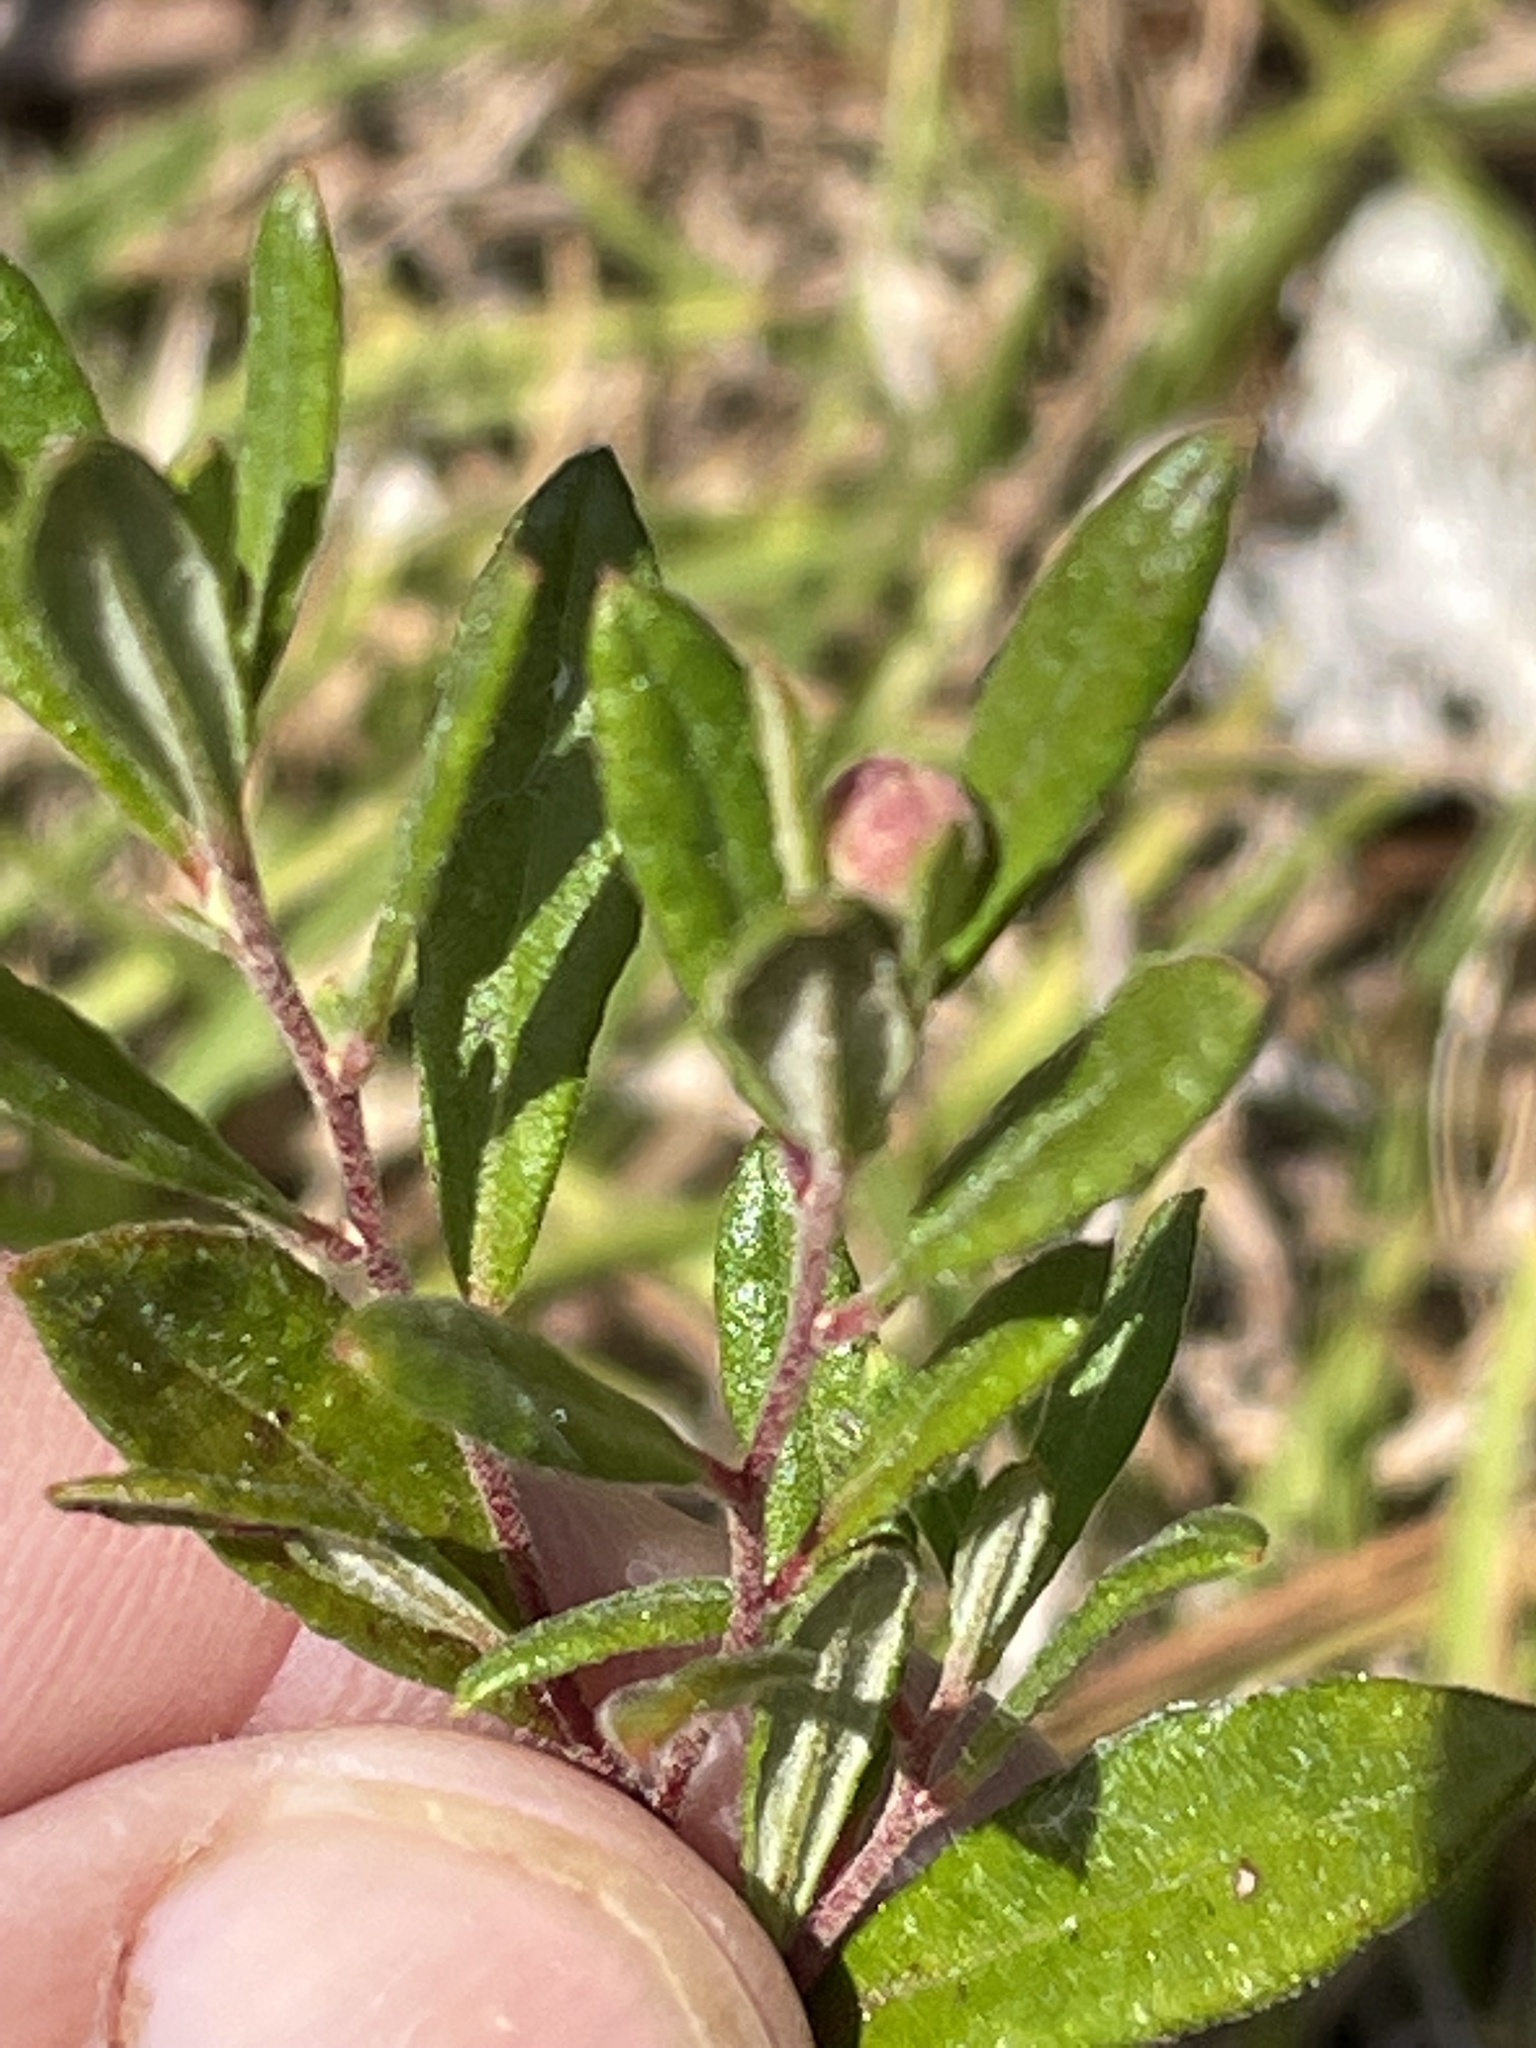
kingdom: Plantae
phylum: Tracheophyta
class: Magnoliopsida
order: Malvales
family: Cistaceae
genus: Crocanthemum
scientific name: Crocanthemum canadense
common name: Canada frostweed
